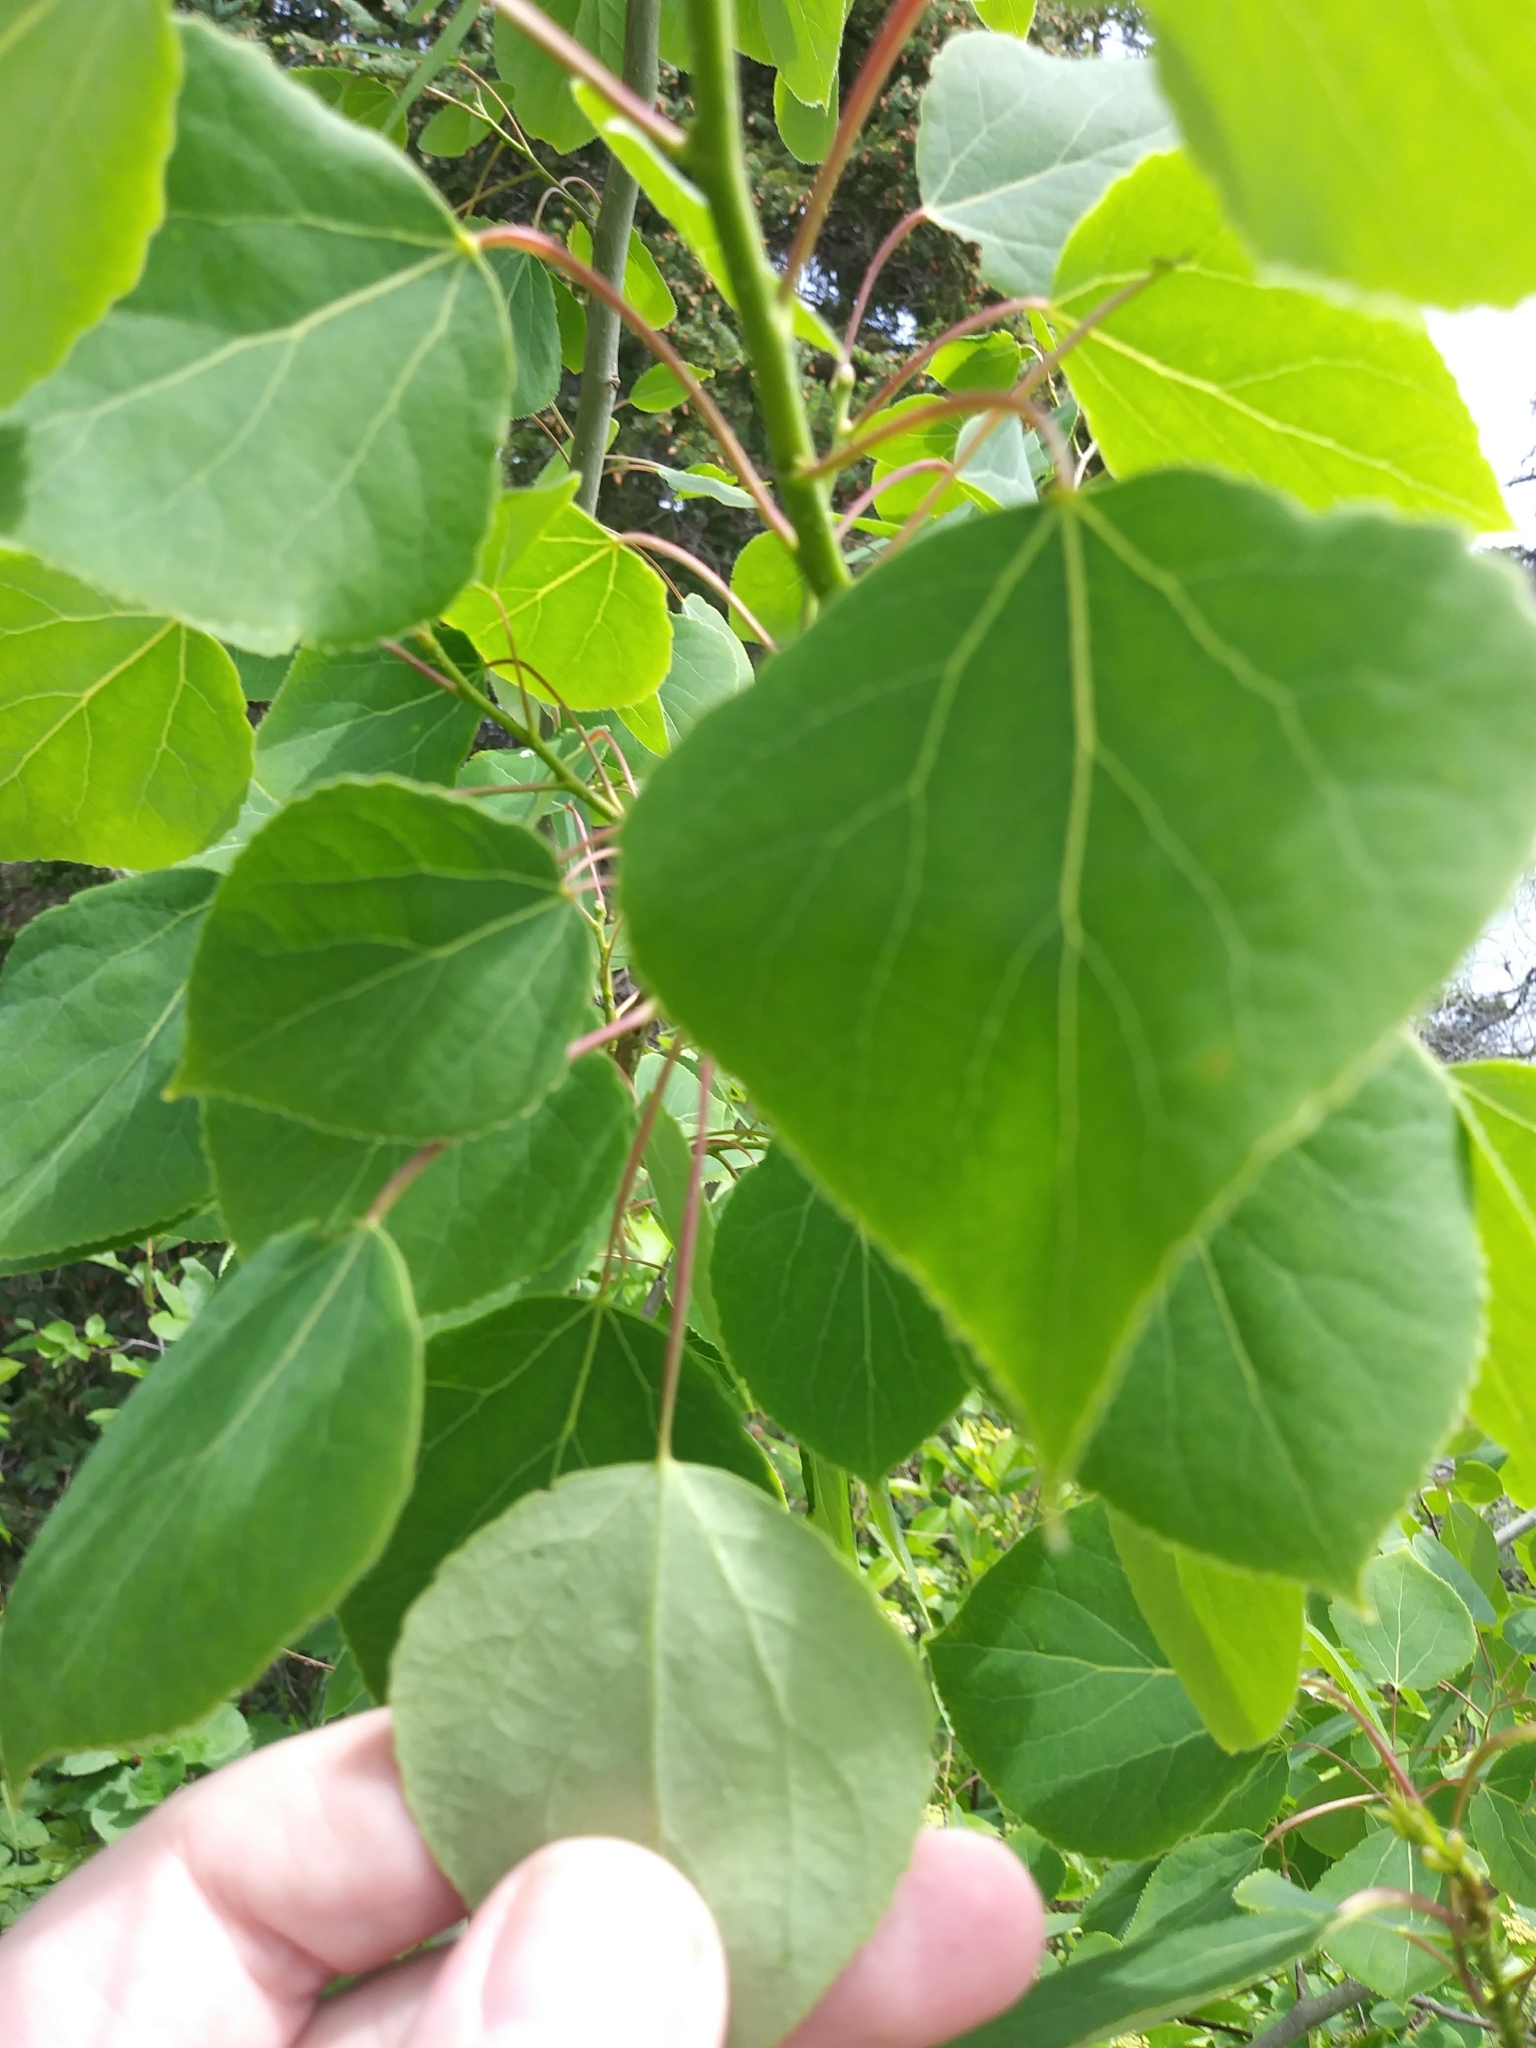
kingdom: Plantae
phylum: Tracheophyta
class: Magnoliopsida
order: Malpighiales
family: Salicaceae
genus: Populus
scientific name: Populus tremuloides
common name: Quaking aspen
